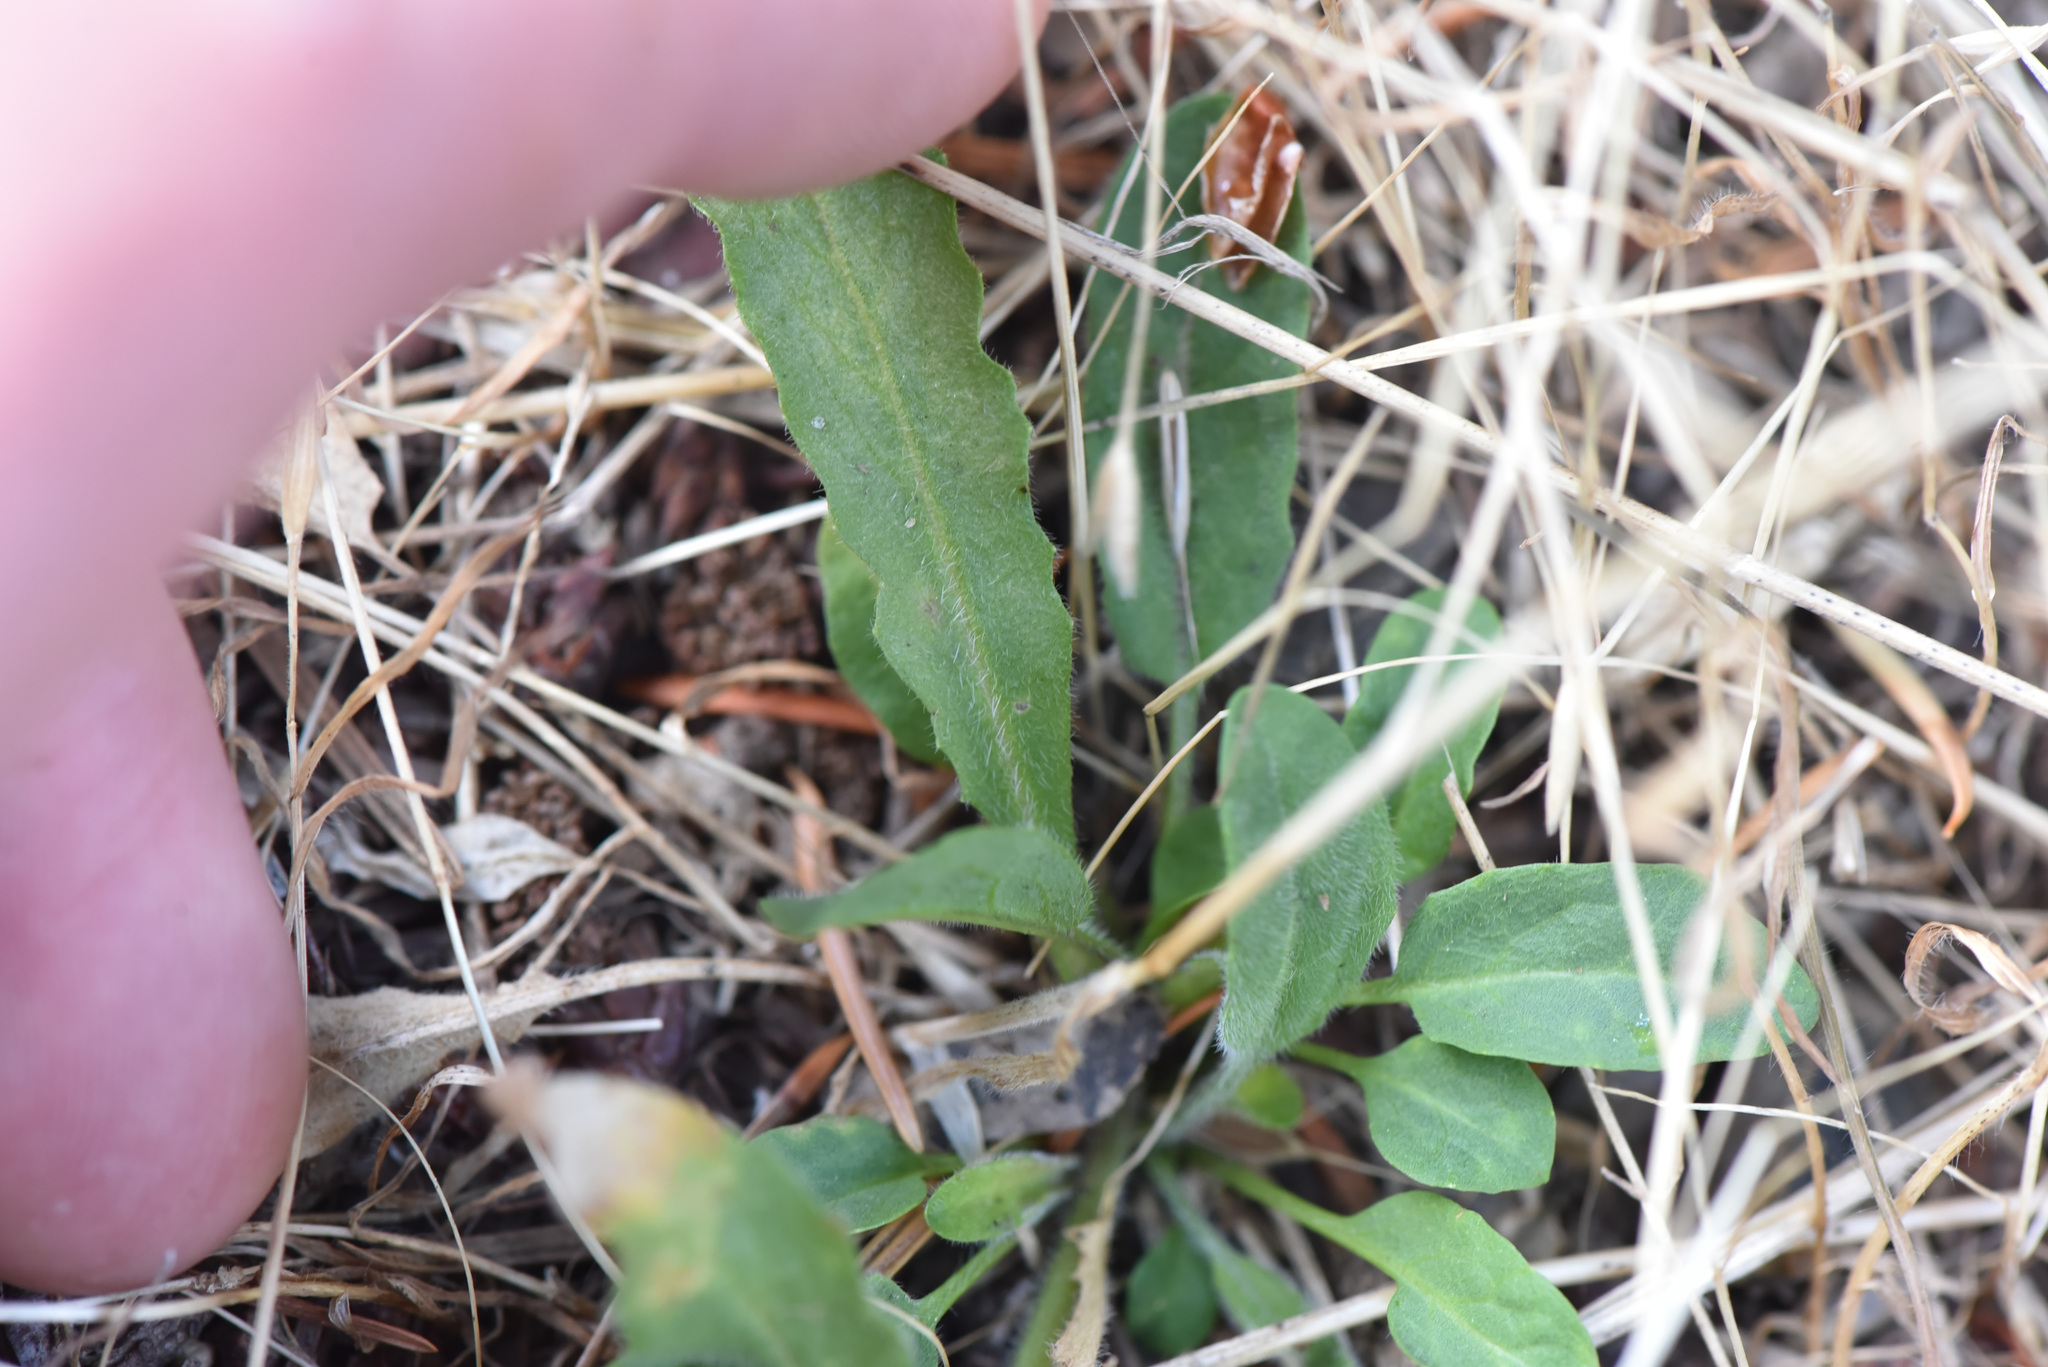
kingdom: Plantae
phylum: Tracheophyta
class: Magnoliopsida
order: Brassicales
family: Brassicaceae
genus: Lepidium
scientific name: Lepidium heterophyllum
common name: Smith's pepperwort
